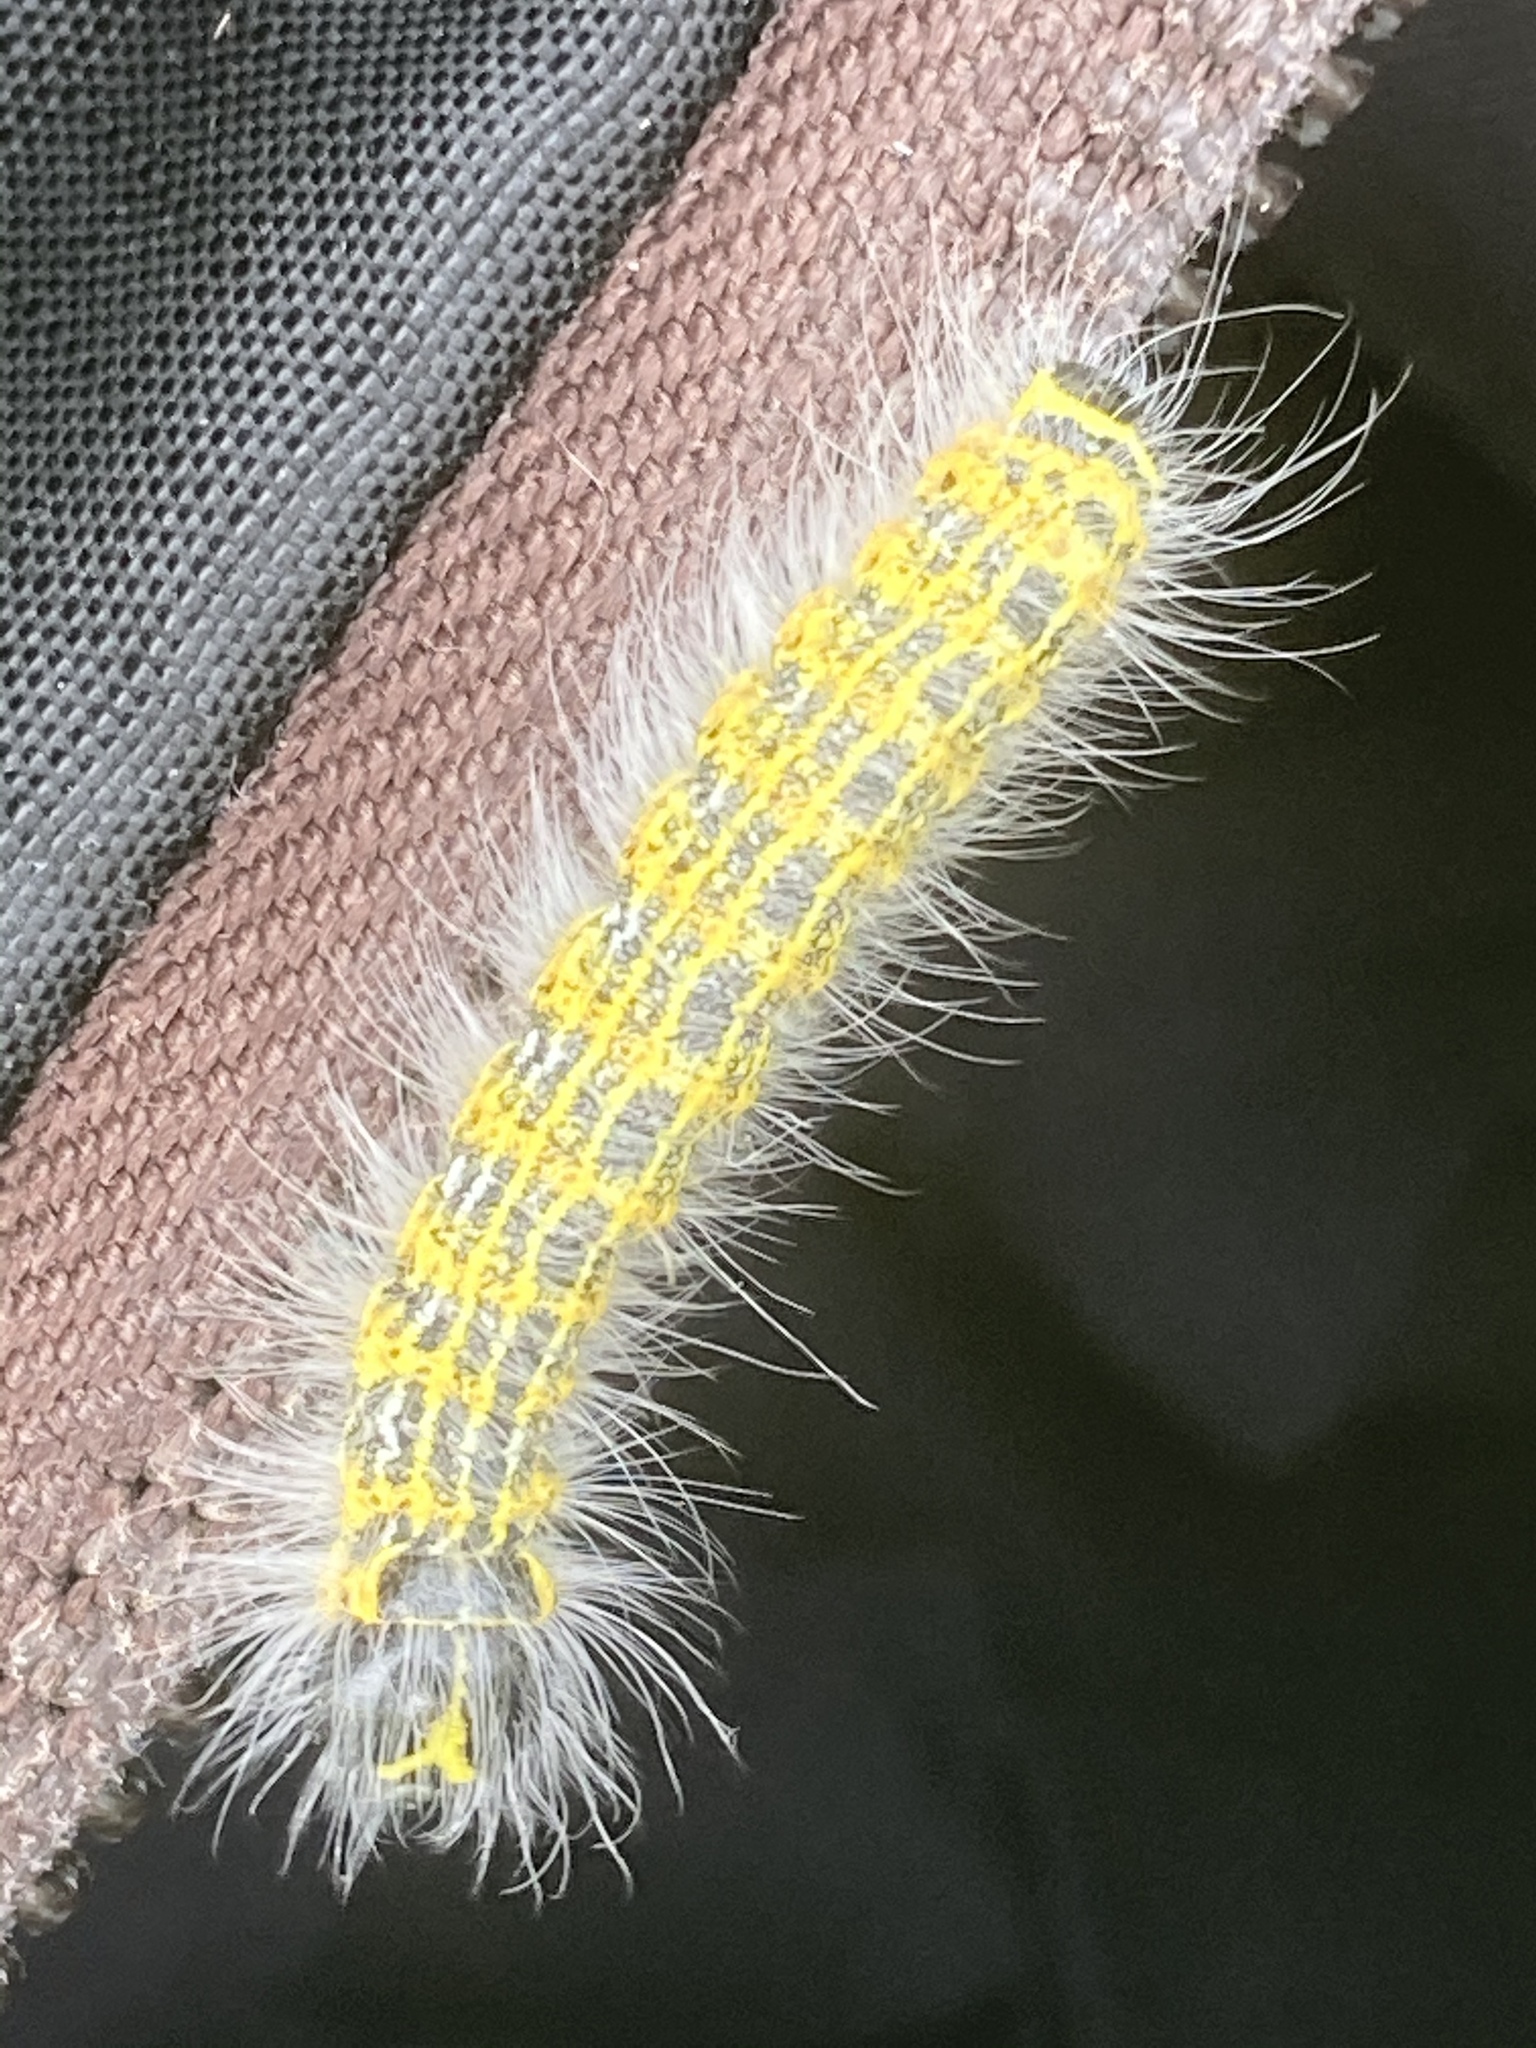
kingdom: Animalia
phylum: Arthropoda
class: Insecta
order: Lepidoptera
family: Notodontidae
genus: Phalera
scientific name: Phalera bucephala
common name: Buff-tip
